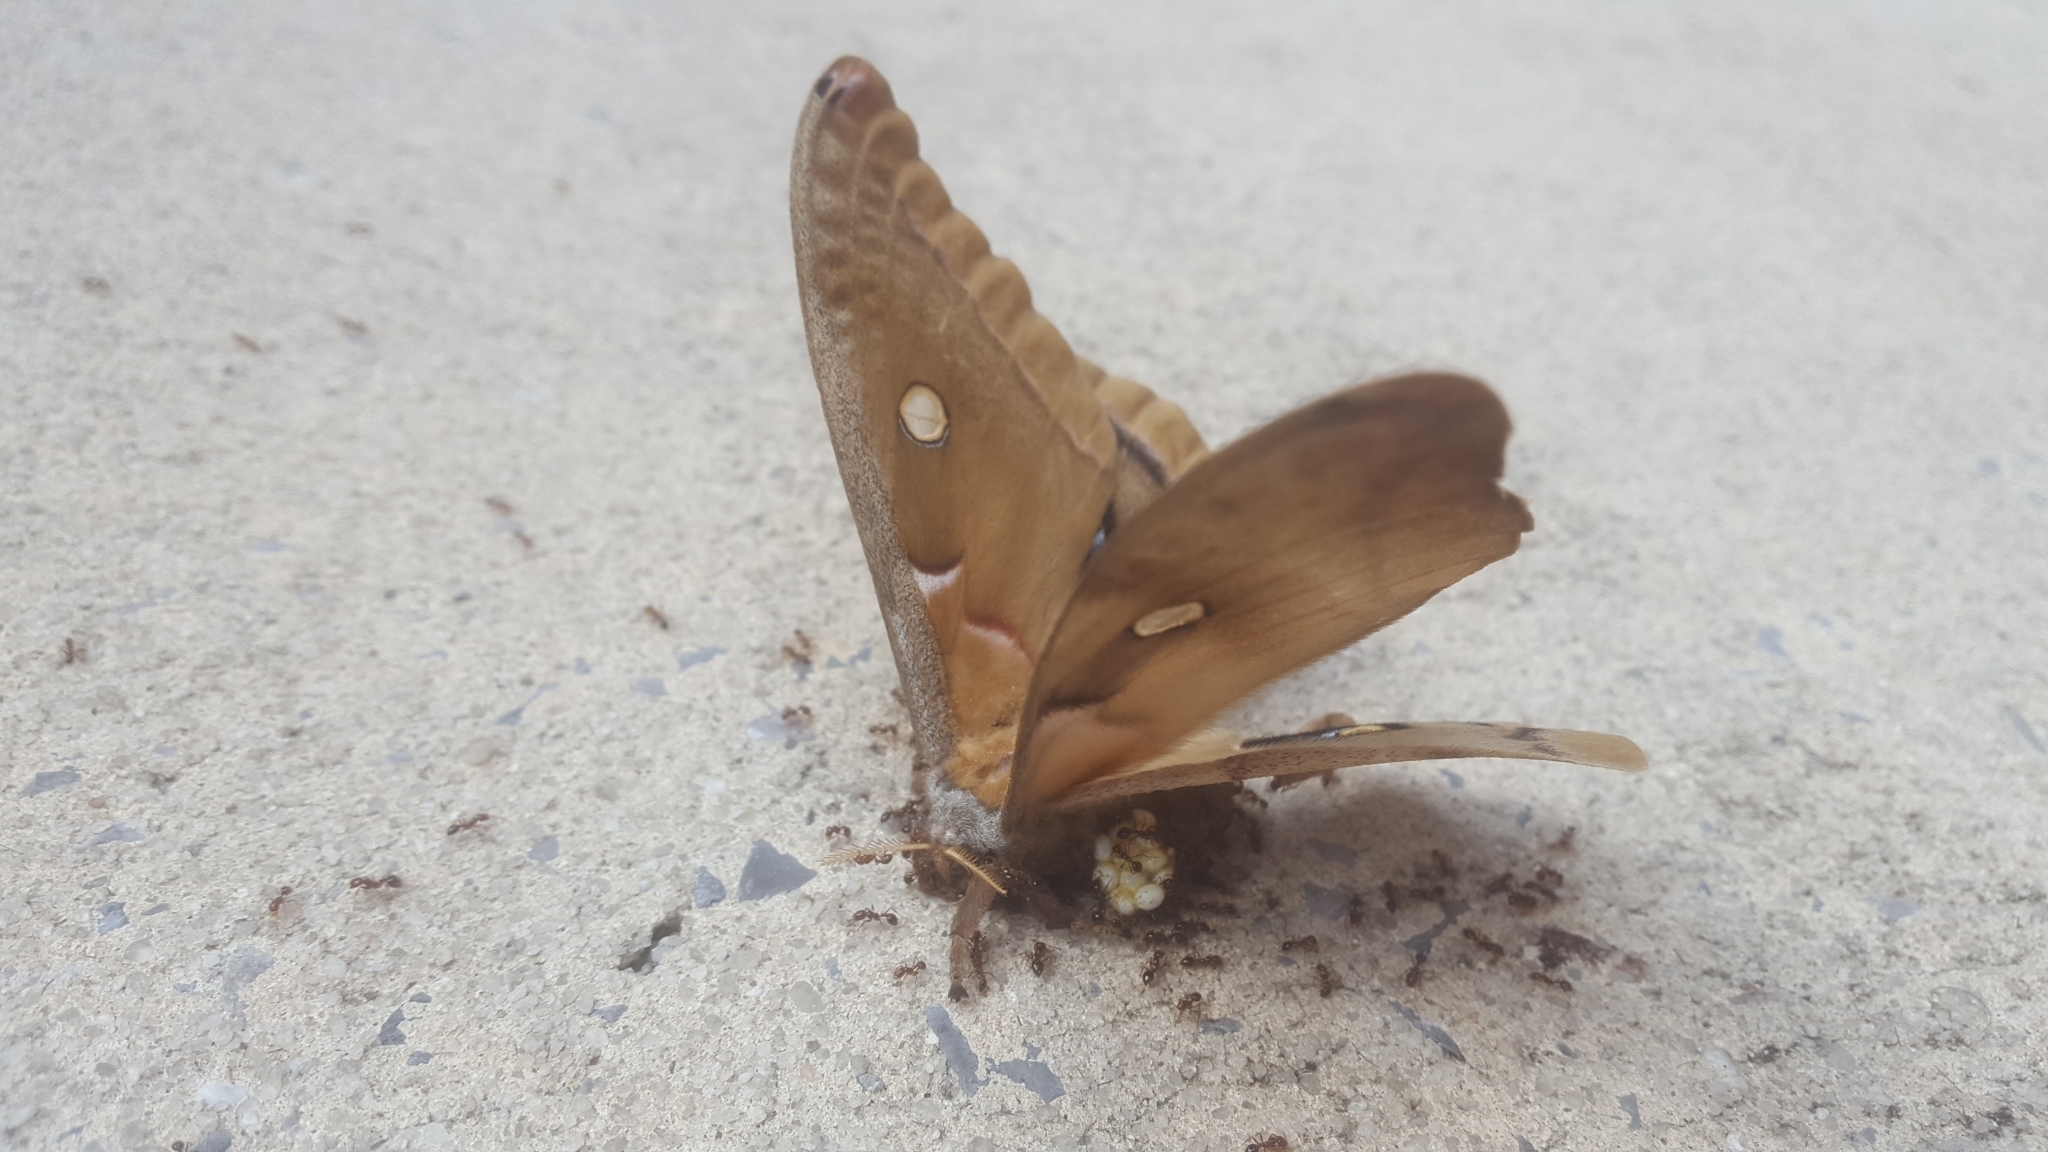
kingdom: Animalia
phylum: Arthropoda
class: Insecta
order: Lepidoptera
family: Saturniidae
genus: Antheraea
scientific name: Antheraea polyphemus
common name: Polyphemus moth
